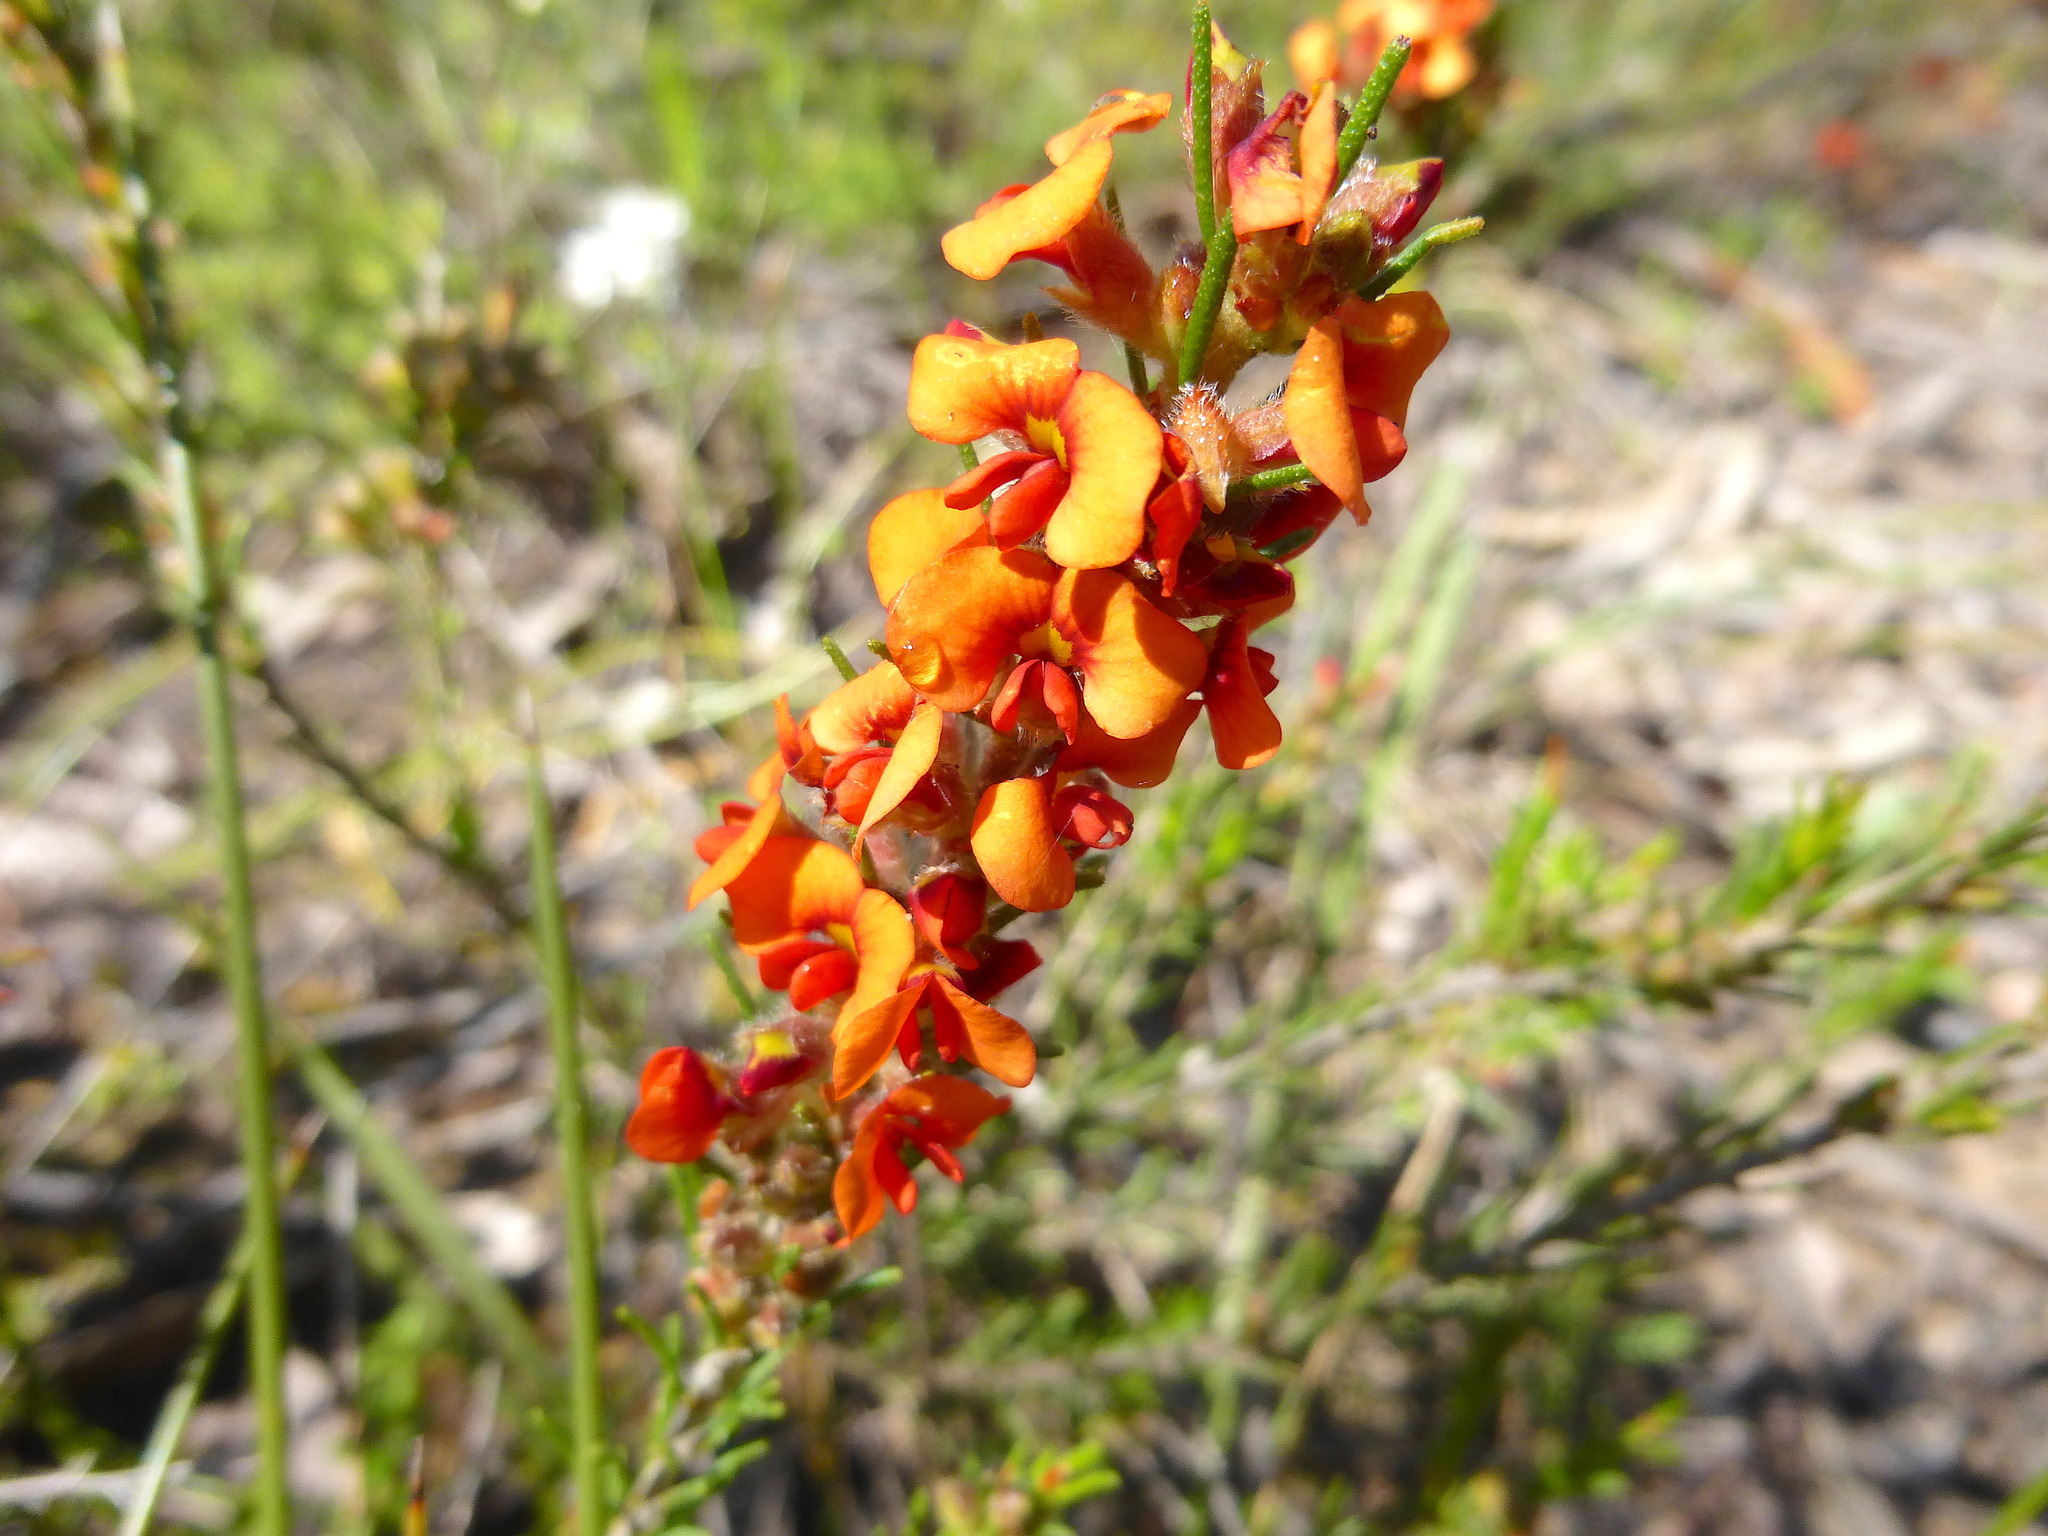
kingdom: Plantae
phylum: Tracheophyta
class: Magnoliopsida
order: Fabales
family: Fabaceae
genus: Dillwynia
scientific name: Dillwynia sericea
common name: Showy parrot-pea
